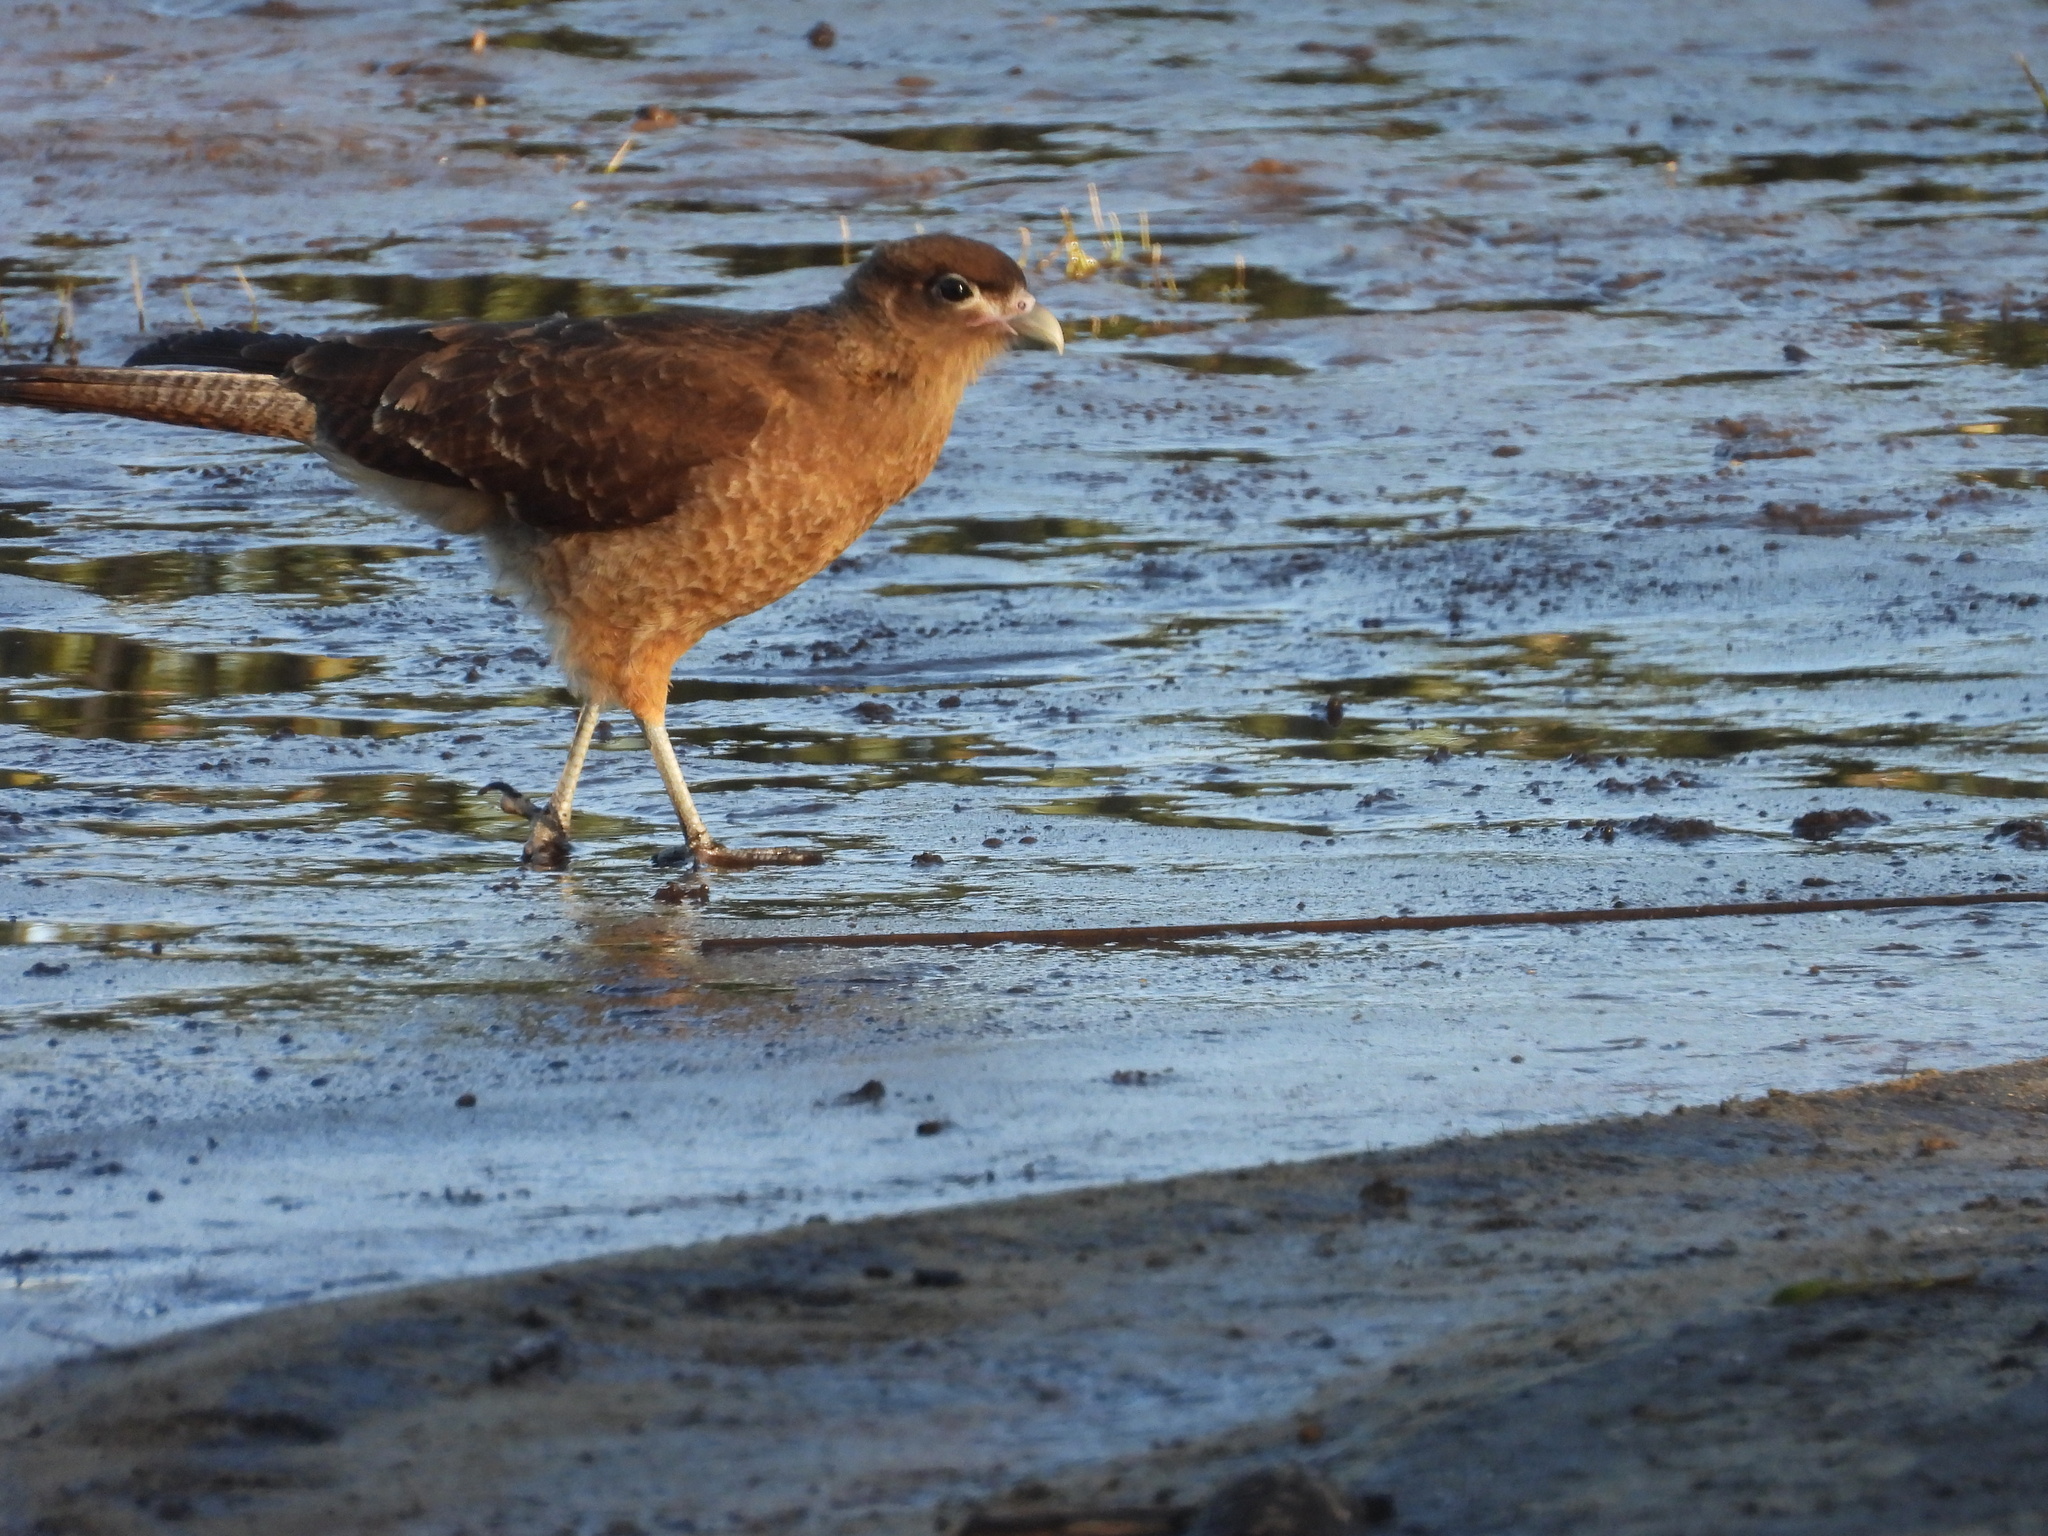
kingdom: Animalia
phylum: Chordata
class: Aves
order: Falconiformes
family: Falconidae
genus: Daptrius
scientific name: Daptrius
